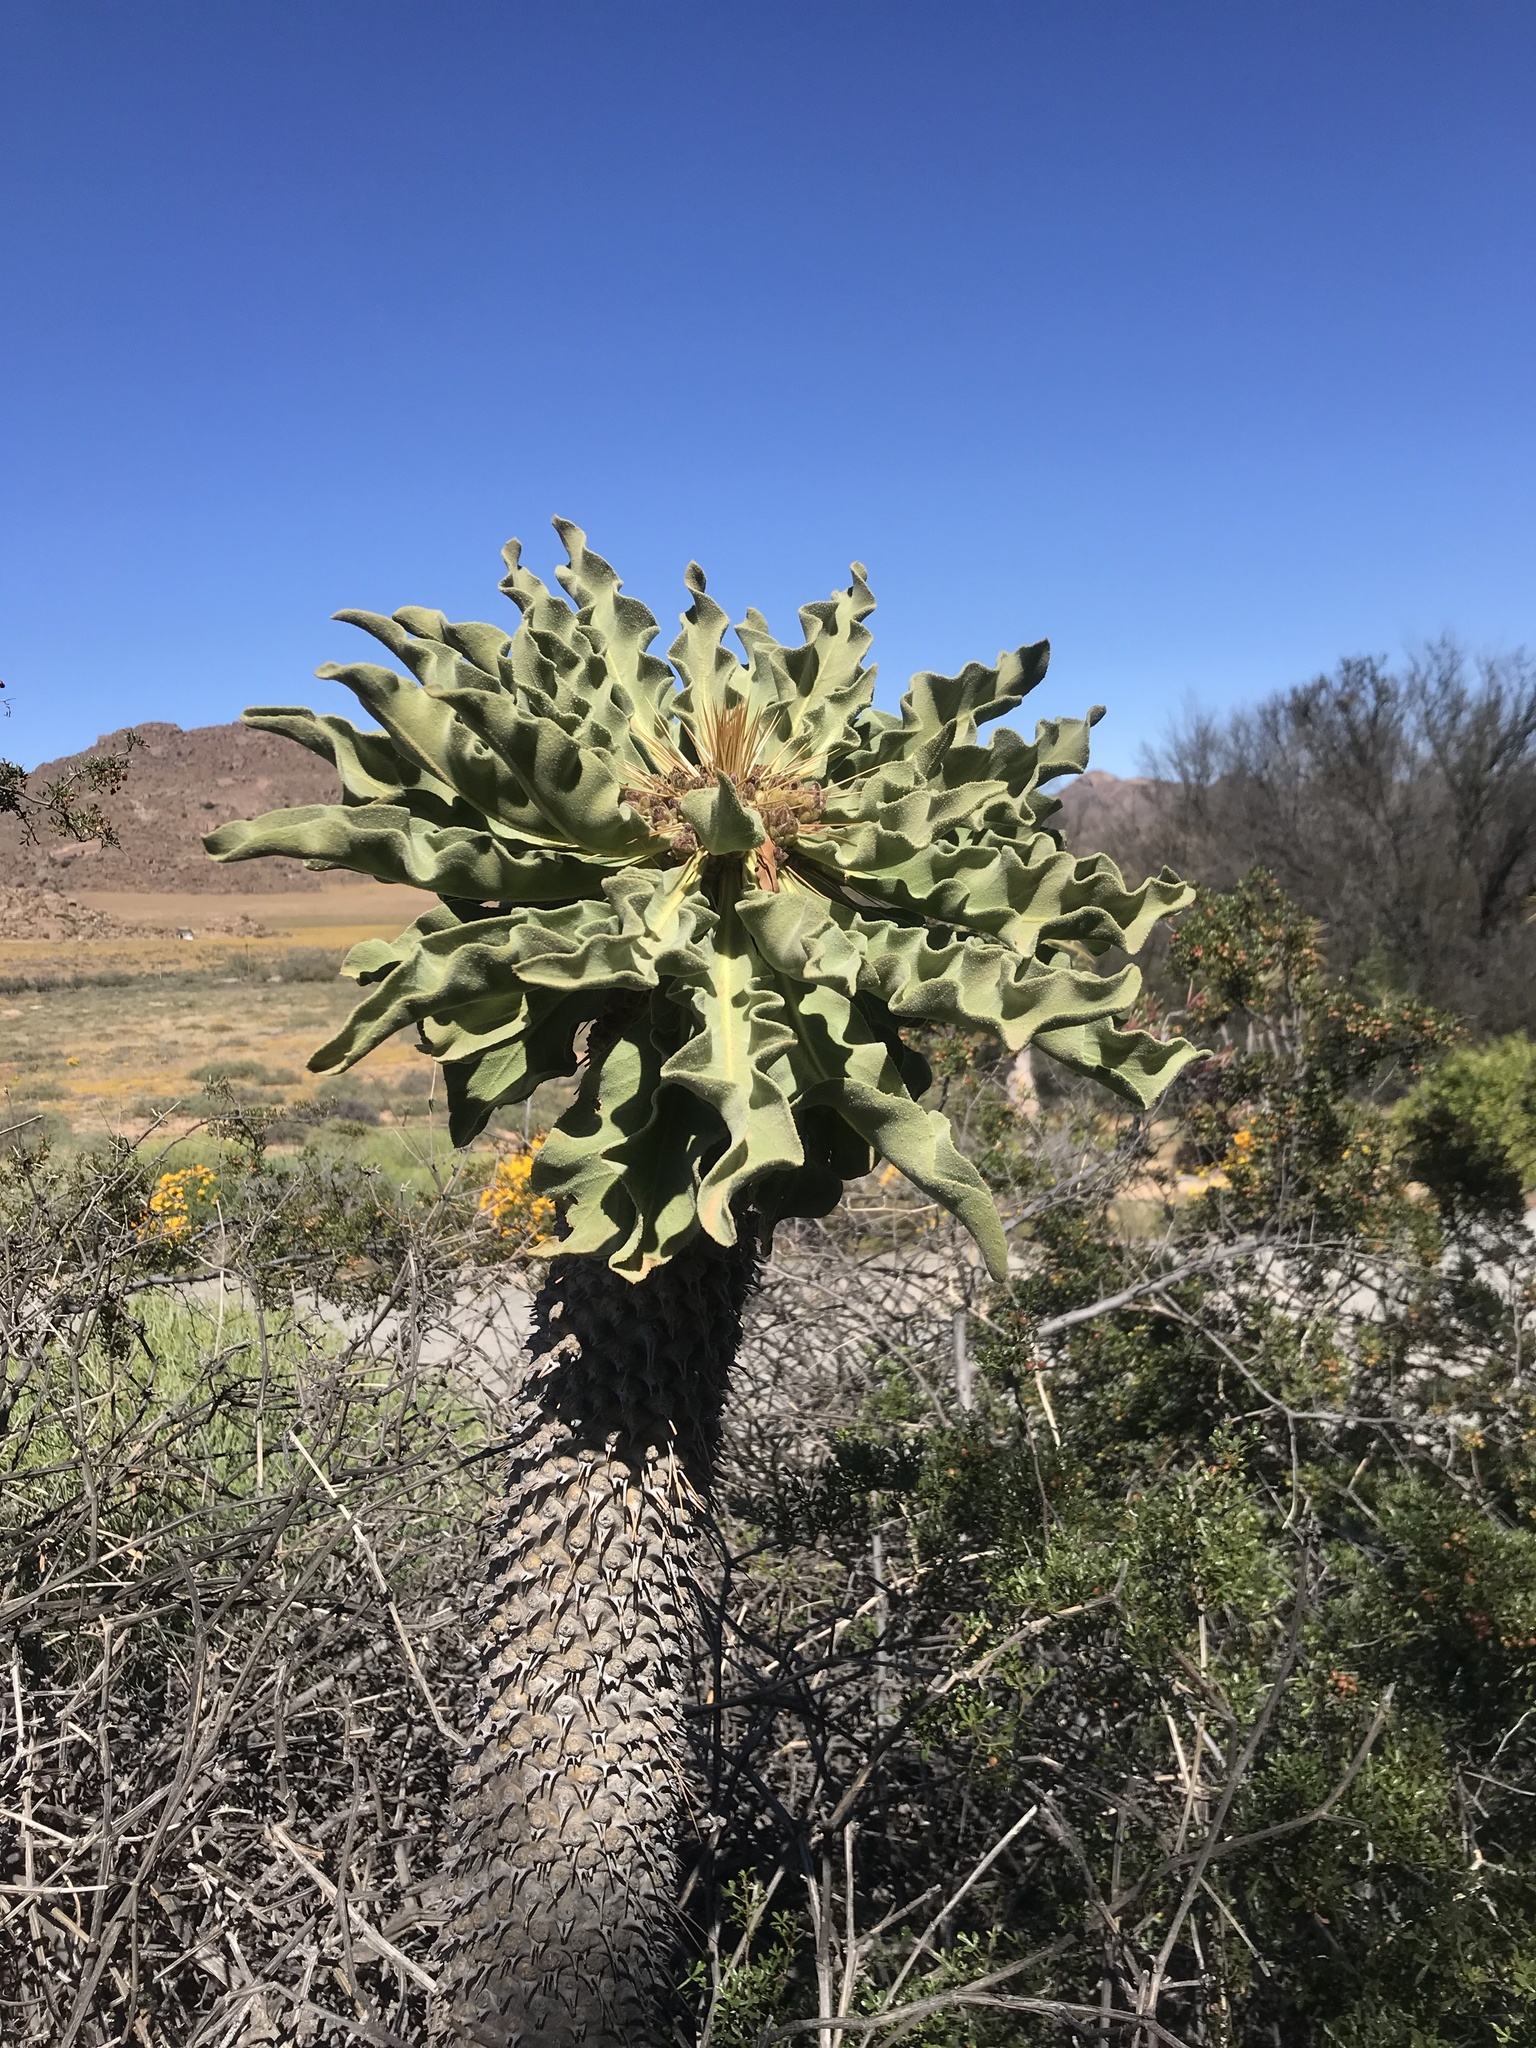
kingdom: Plantae
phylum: Tracheophyta
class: Magnoliopsida
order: Gentianales
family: Apocynaceae
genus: Pachypodium
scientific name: Pachypodium namaquanum
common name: Elephant's trunk
